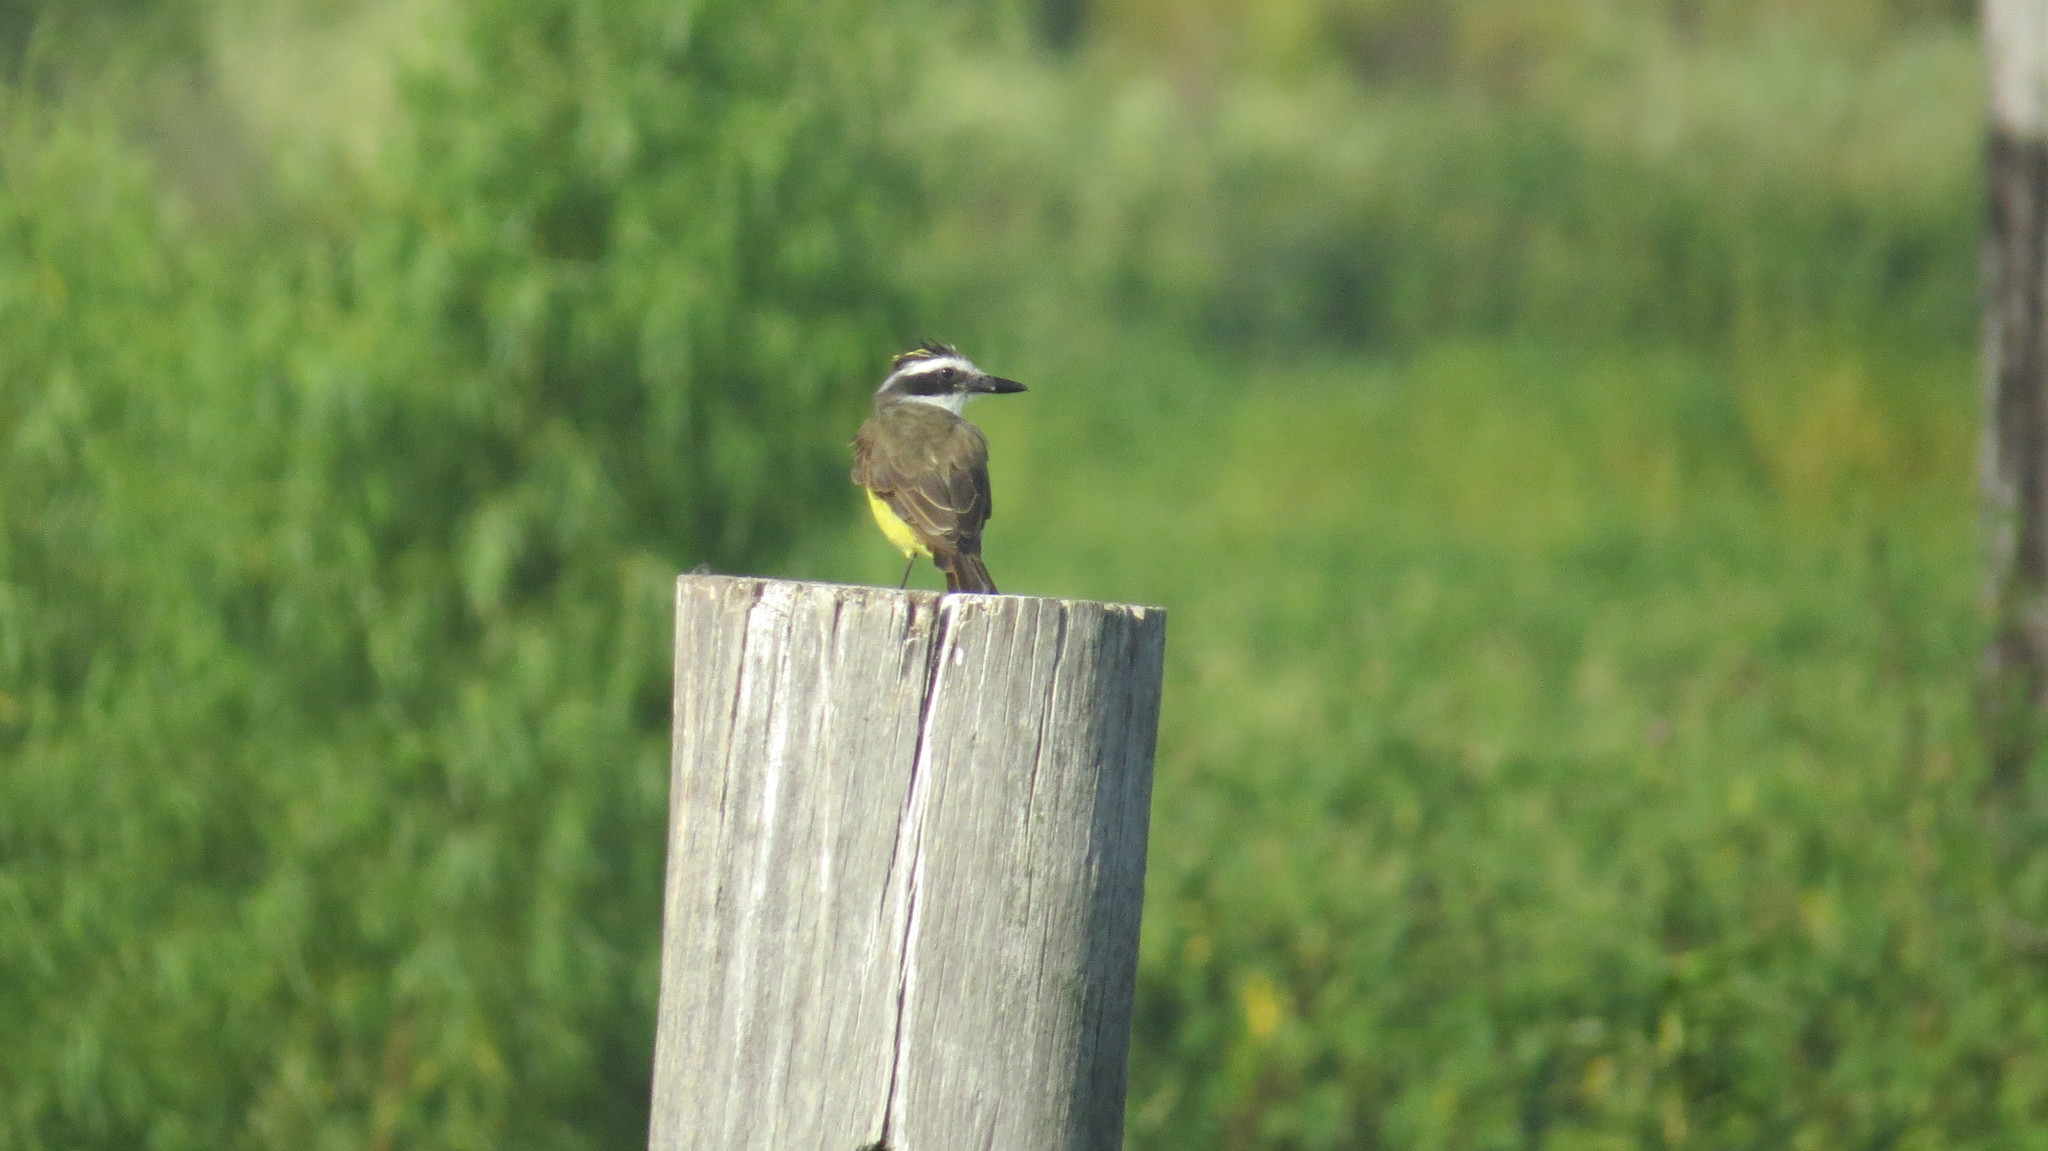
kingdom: Animalia
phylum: Chordata
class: Aves
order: Passeriformes
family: Tyrannidae
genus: Pitangus
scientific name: Pitangus sulphuratus
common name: Great kiskadee
